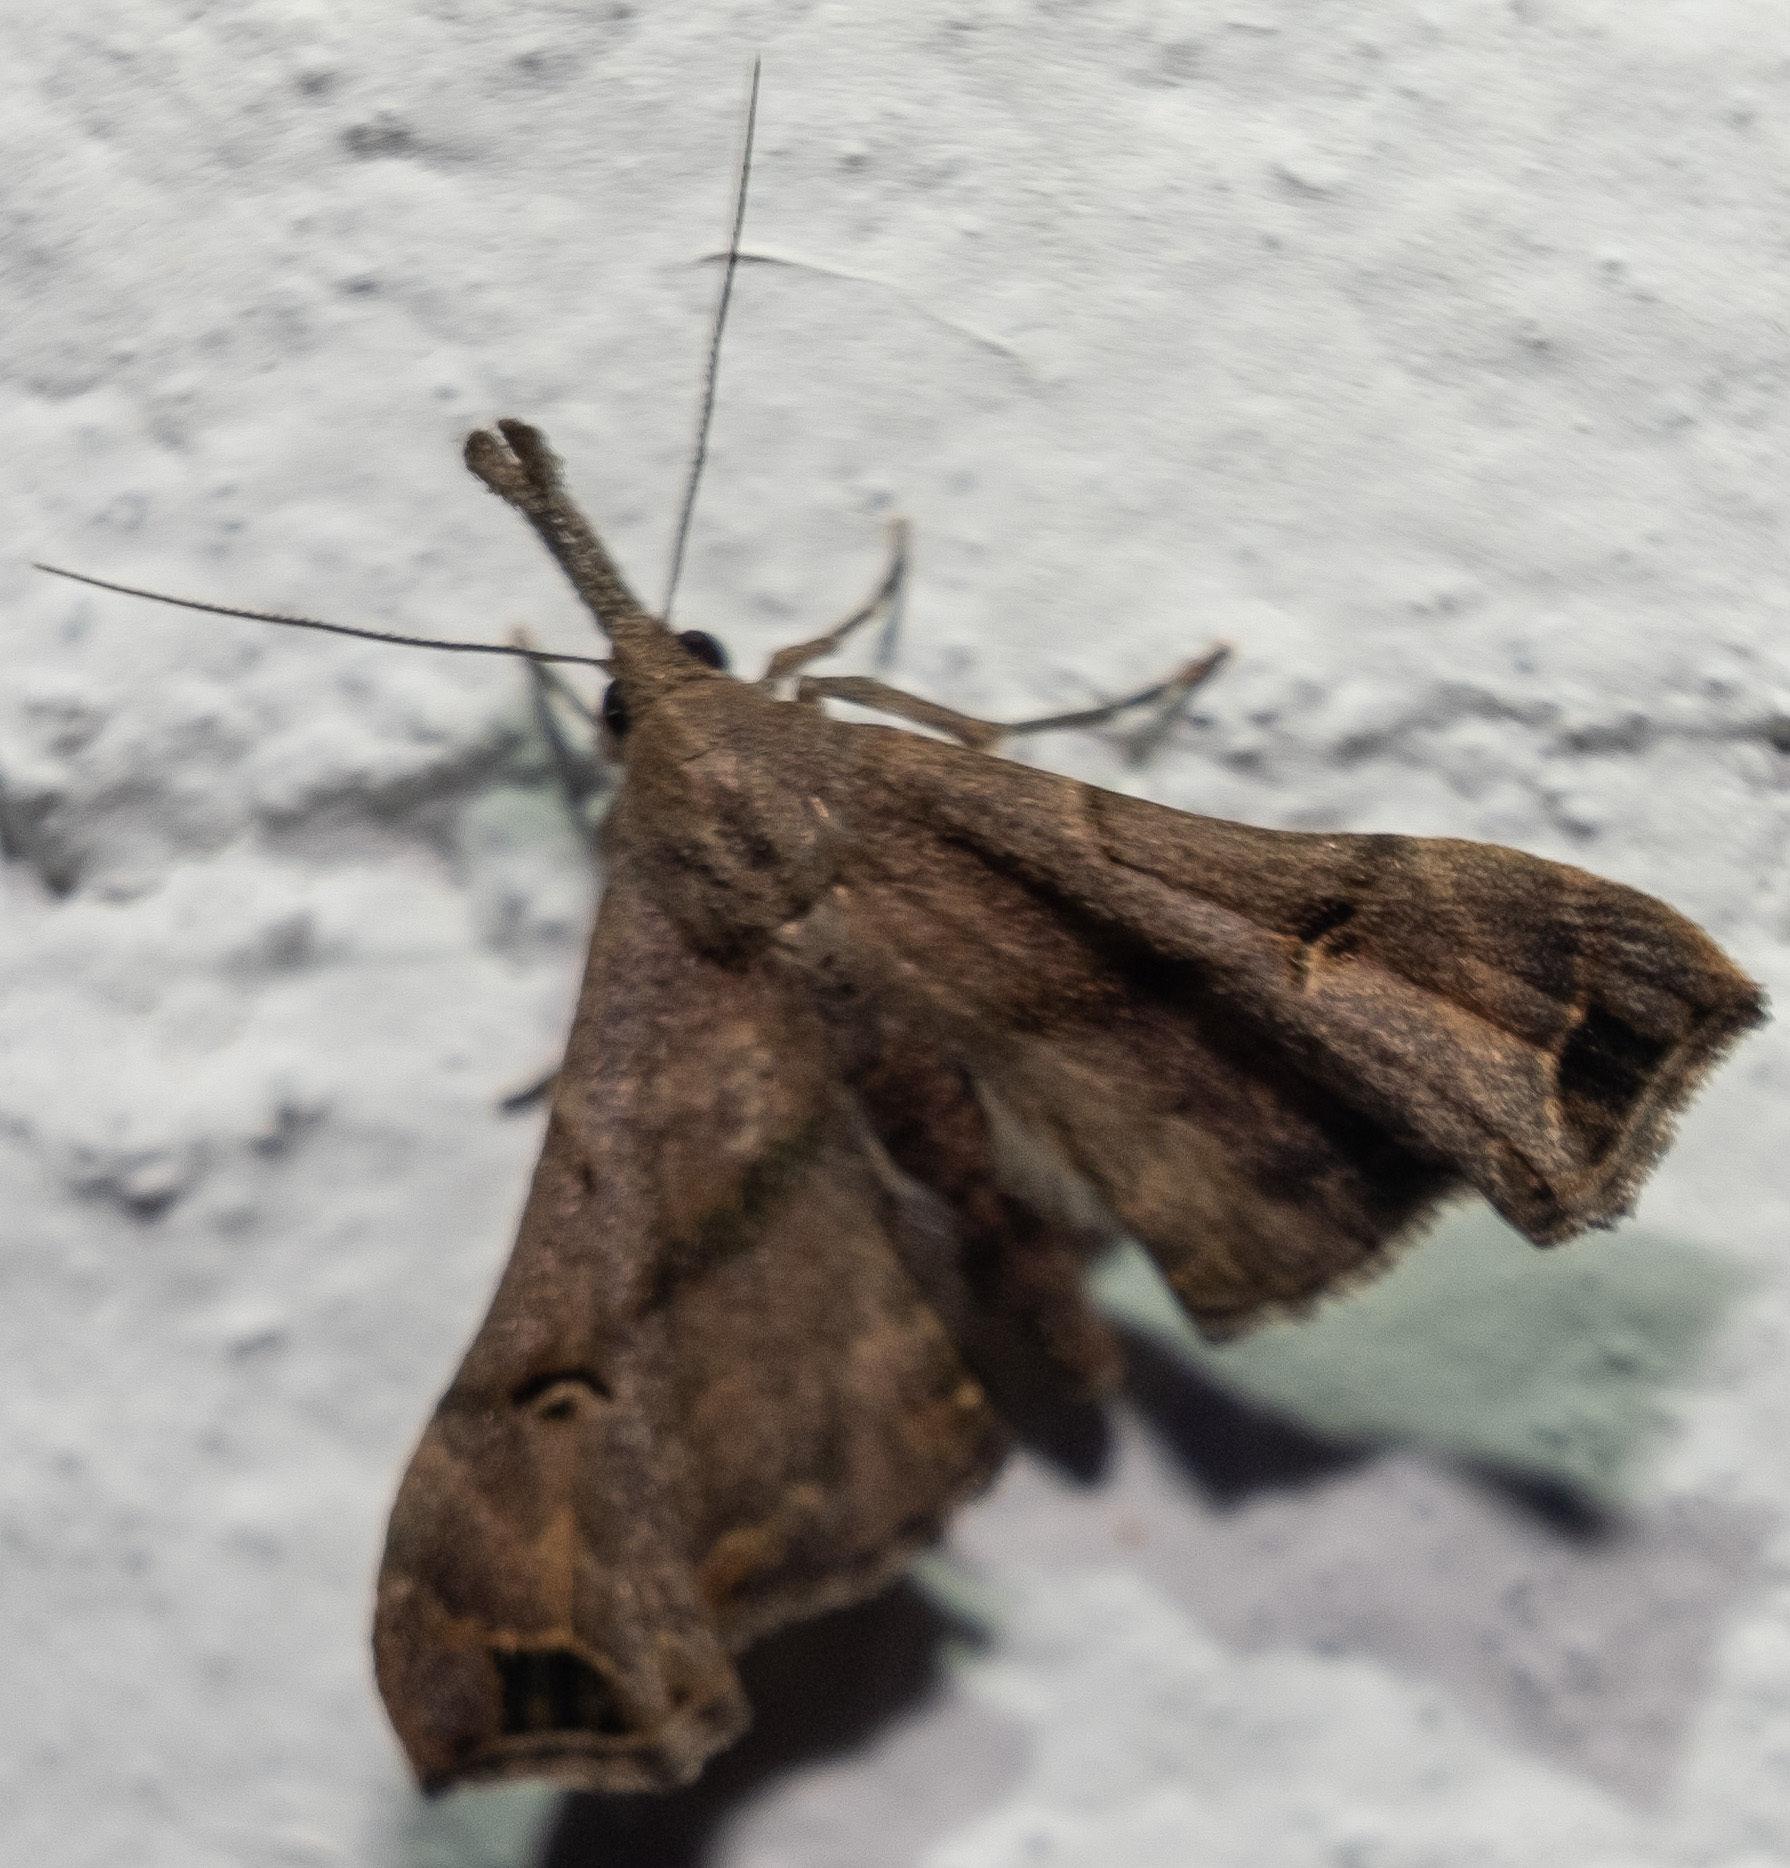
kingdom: Animalia
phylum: Arthropoda
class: Insecta
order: Lepidoptera
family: Erebidae
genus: Palthis
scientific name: Palthis asopialis
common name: Faint-spotted palthis moth
